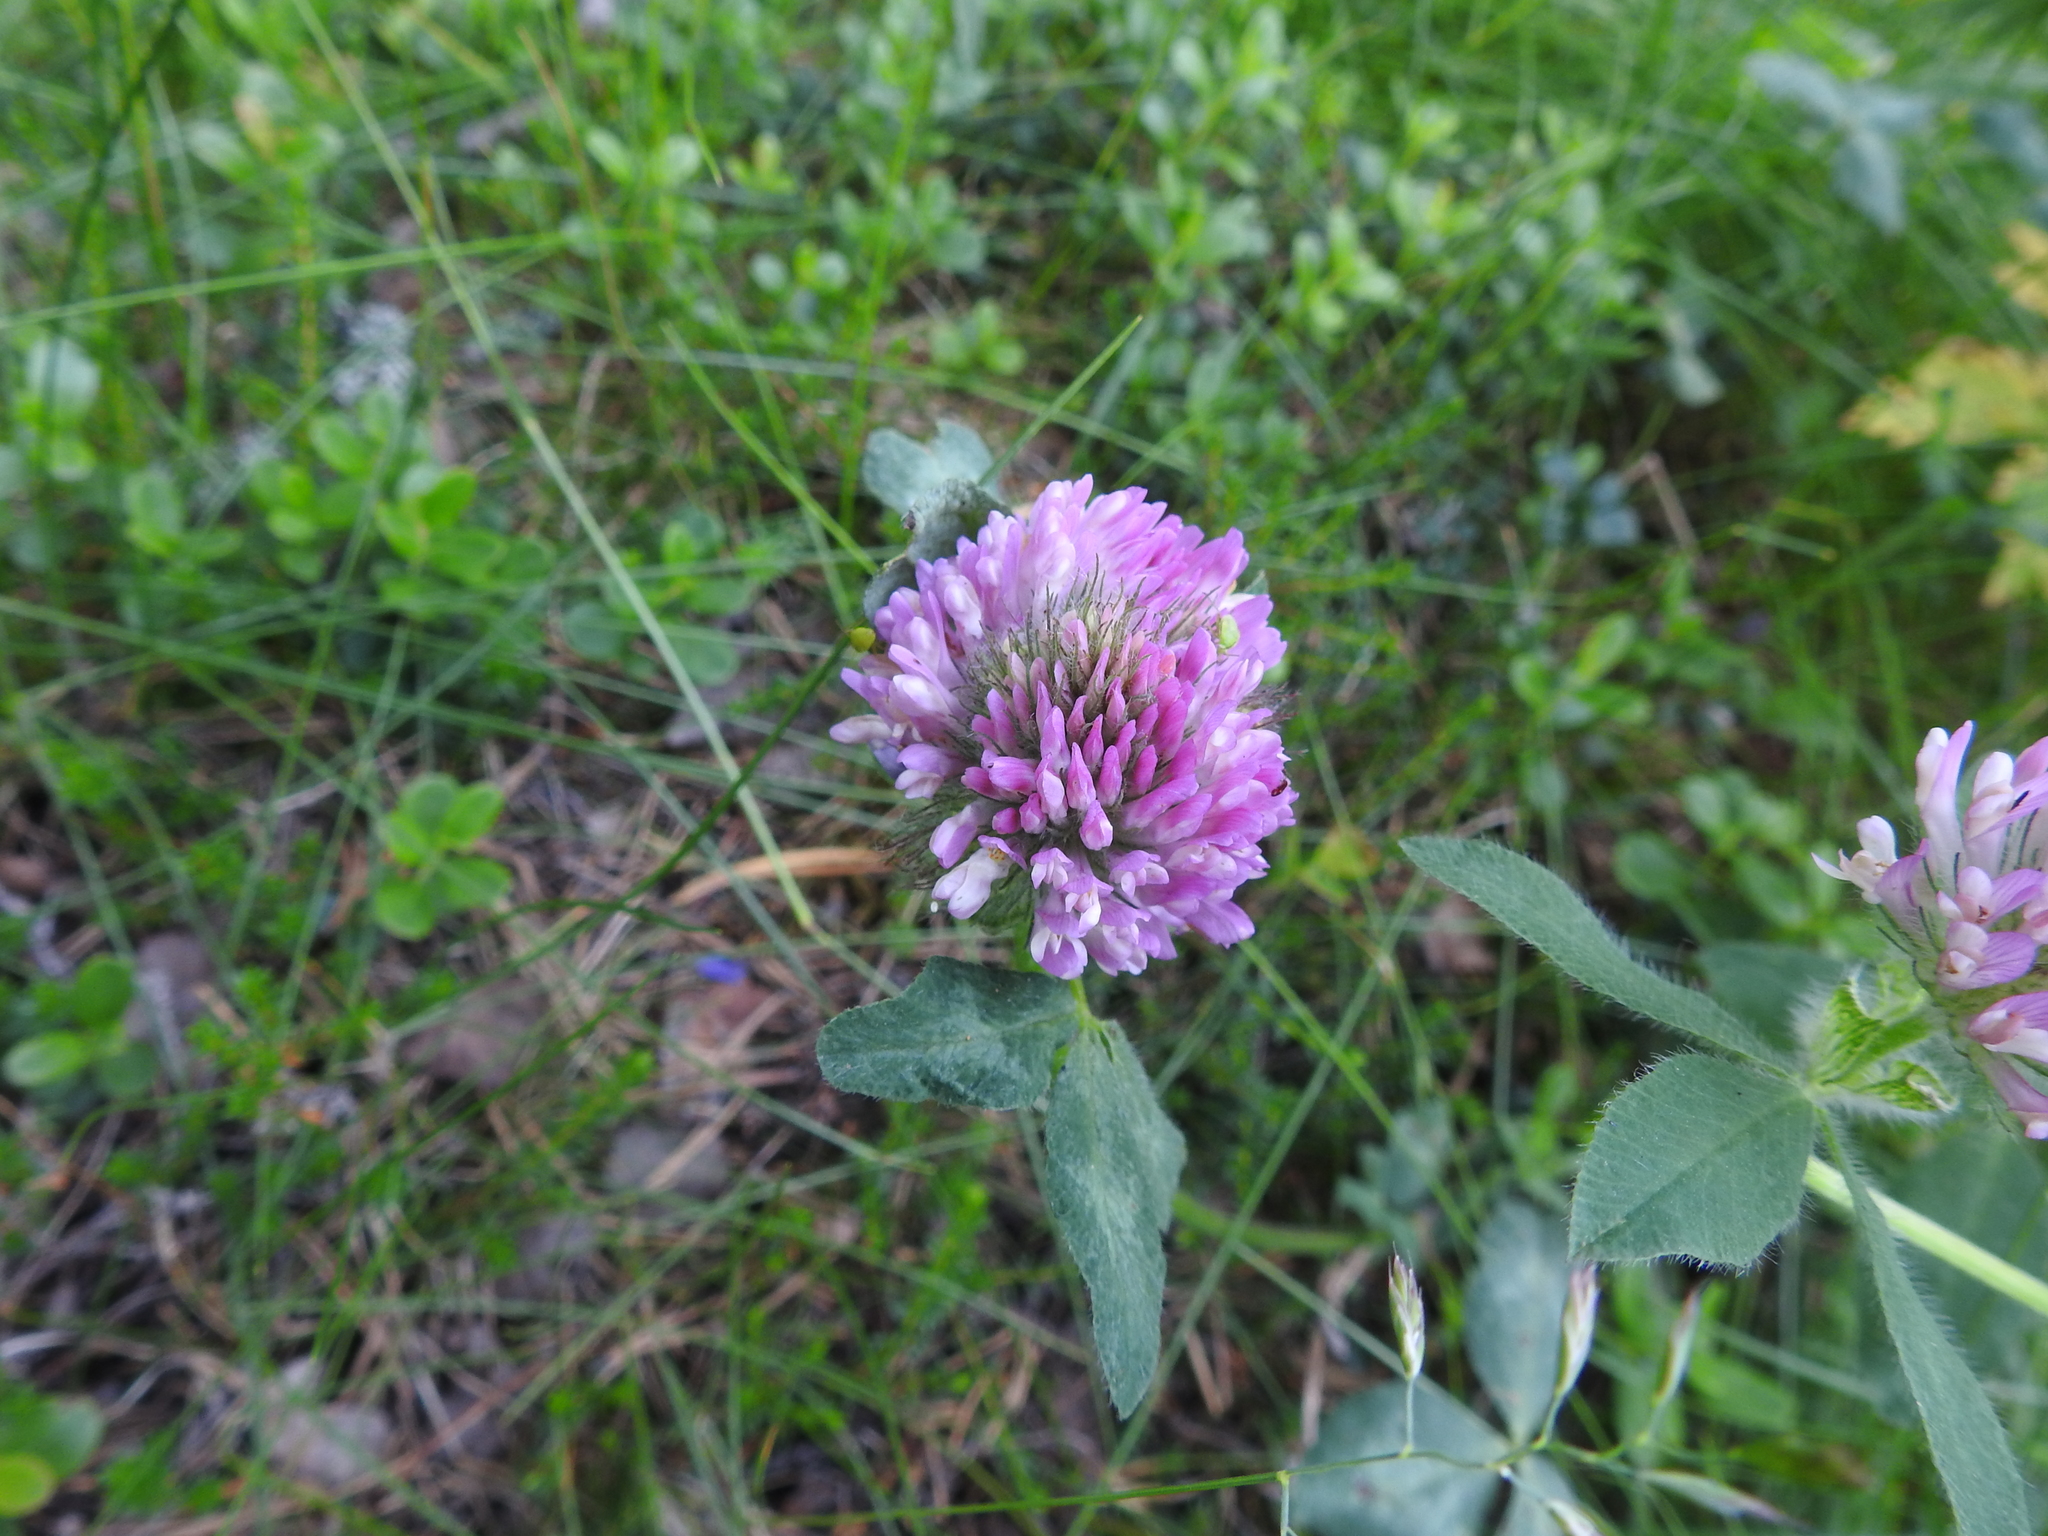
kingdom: Plantae
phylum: Tracheophyta
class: Magnoliopsida
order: Fabales
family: Fabaceae
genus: Trifolium
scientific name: Trifolium pratense
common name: Red clover
